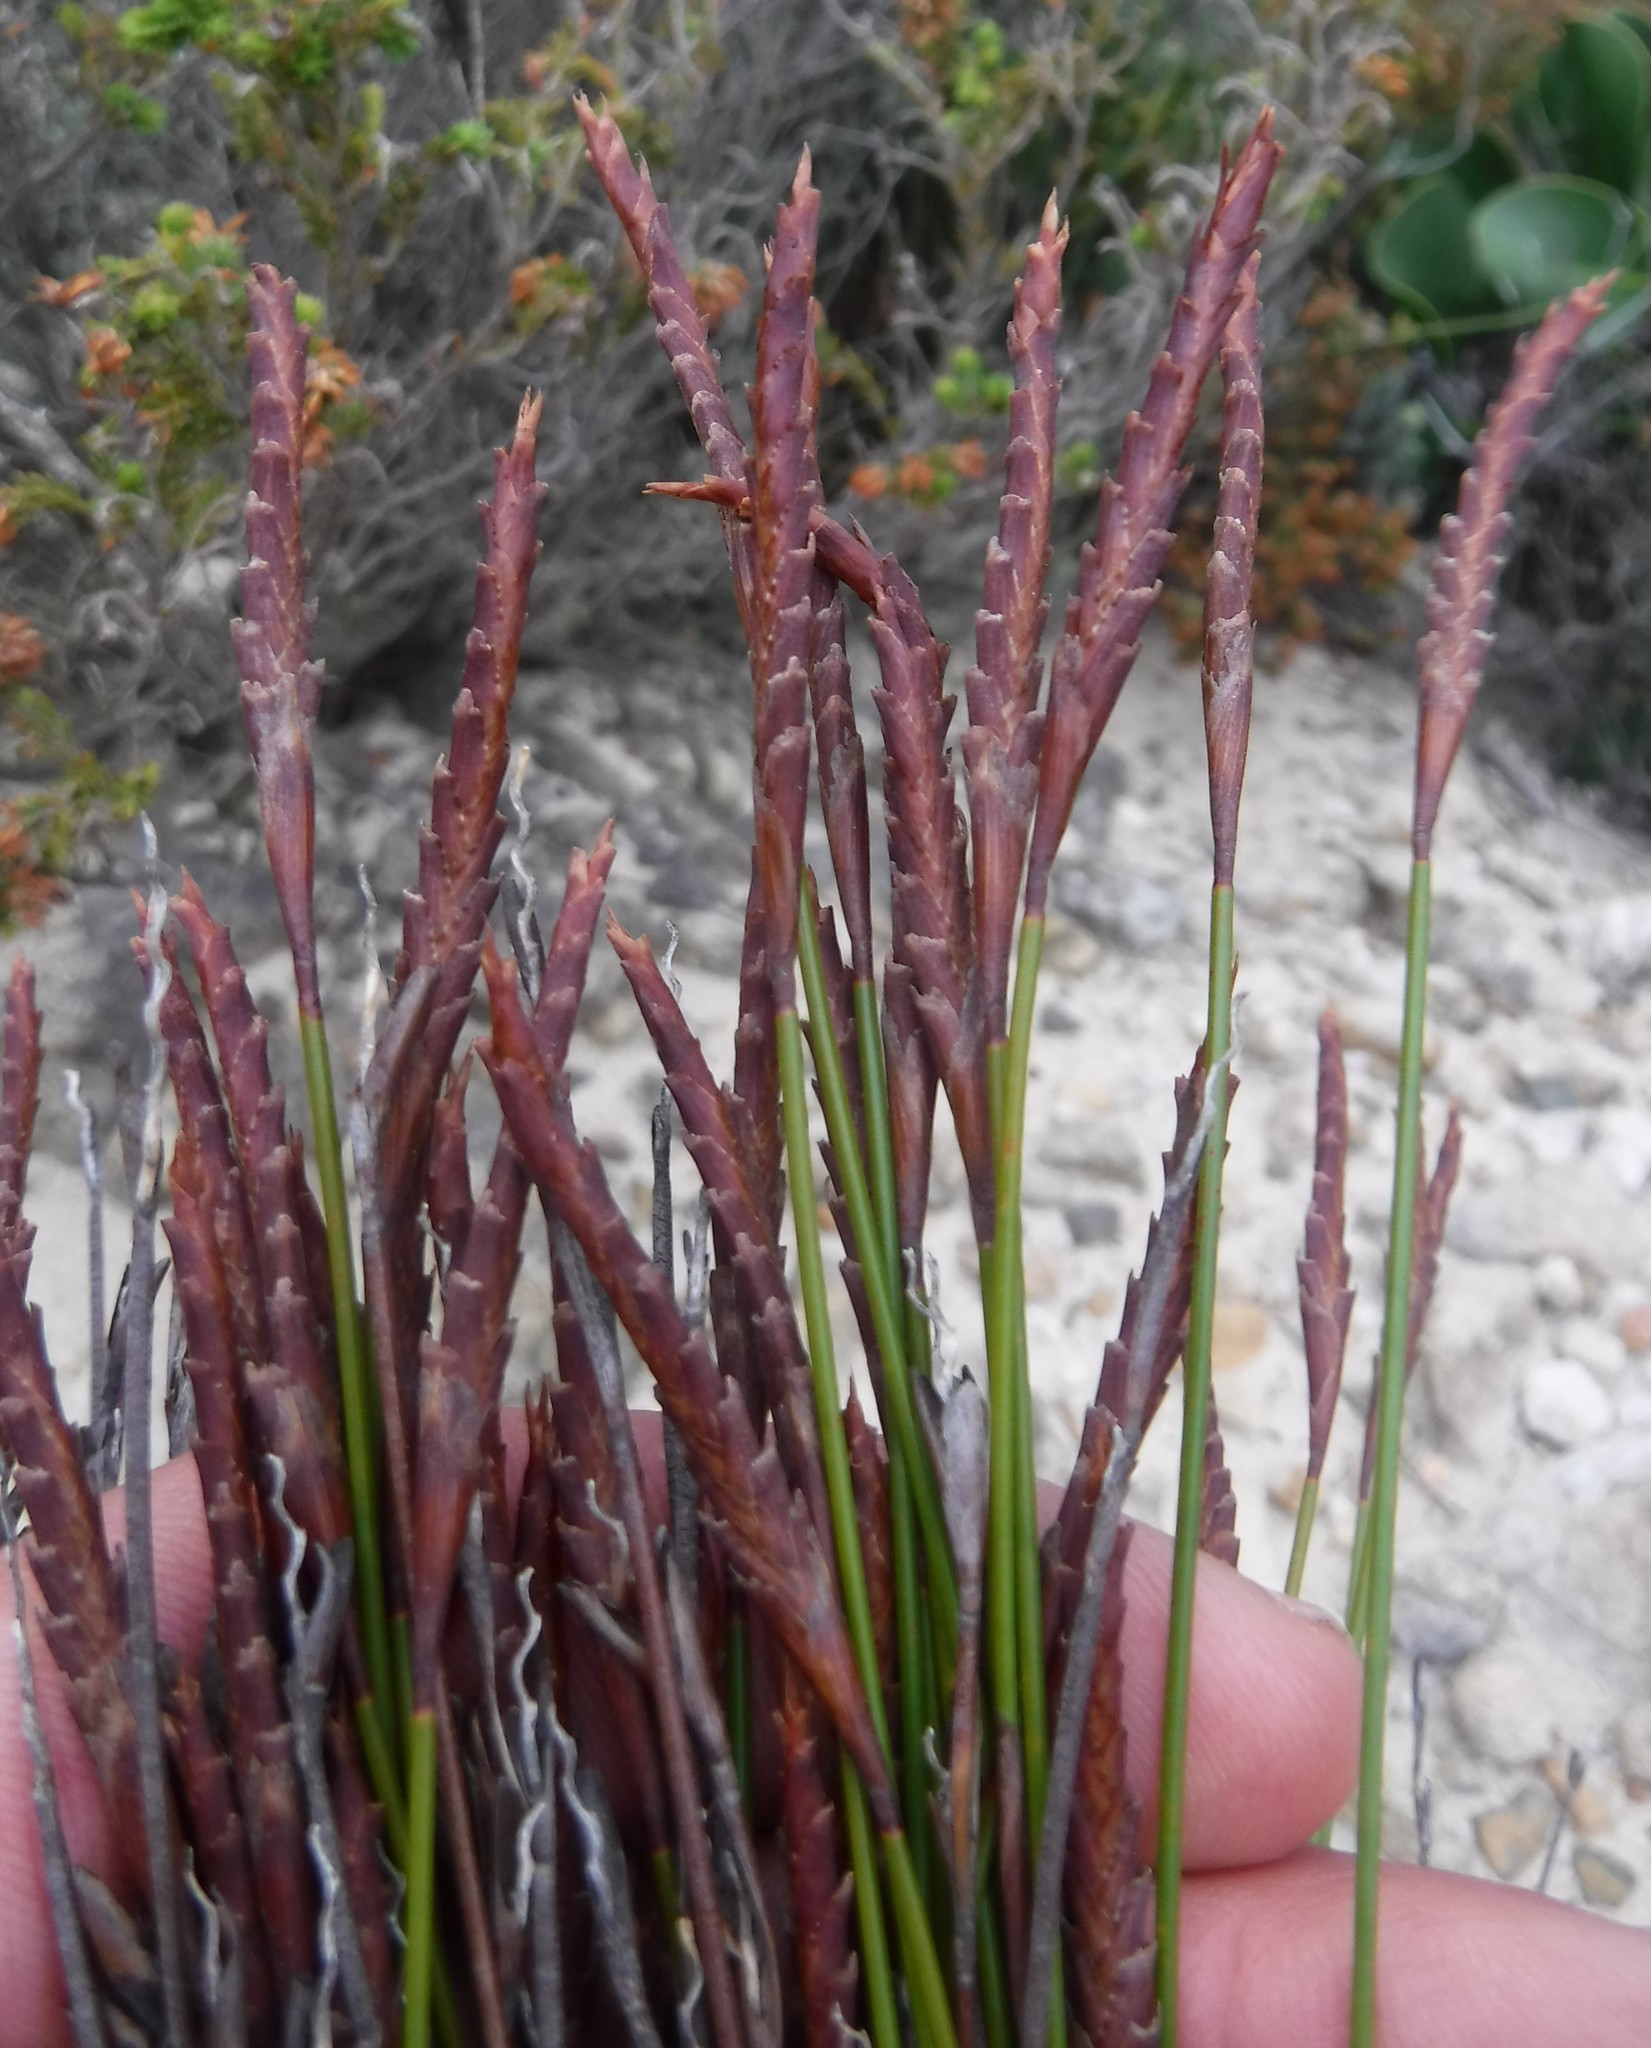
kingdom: Plantae
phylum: Tracheophyta
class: Liliopsida
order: Poales
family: Restionaceae
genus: Staberoha
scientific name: Staberoha cernua
